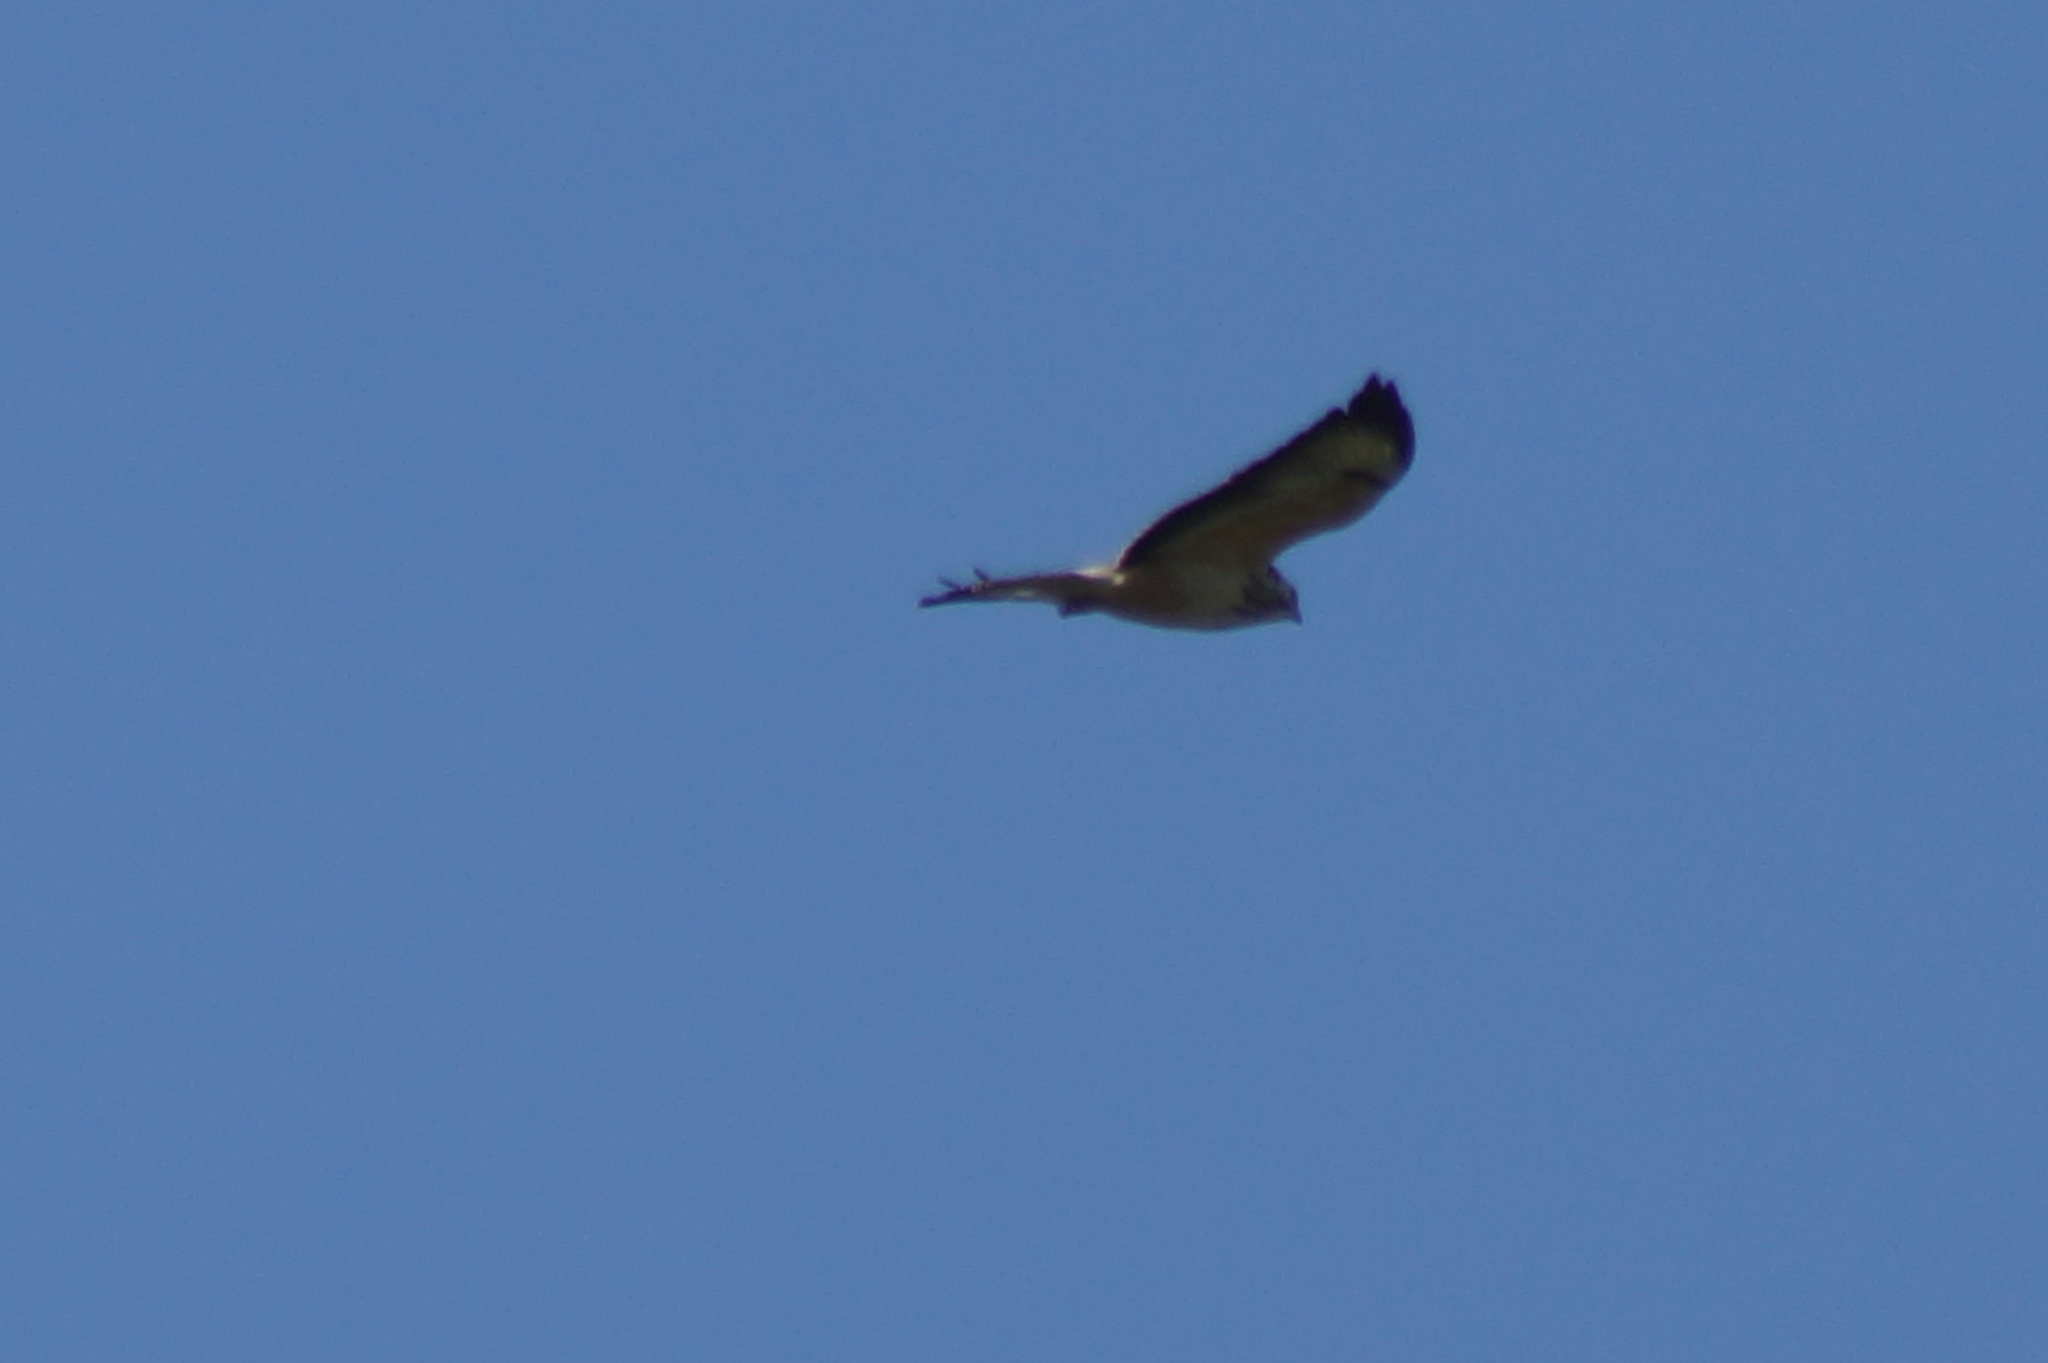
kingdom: Animalia
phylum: Chordata
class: Aves
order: Accipitriformes
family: Accipitridae
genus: Buteo
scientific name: Buteo buteo
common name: Common buzzard
